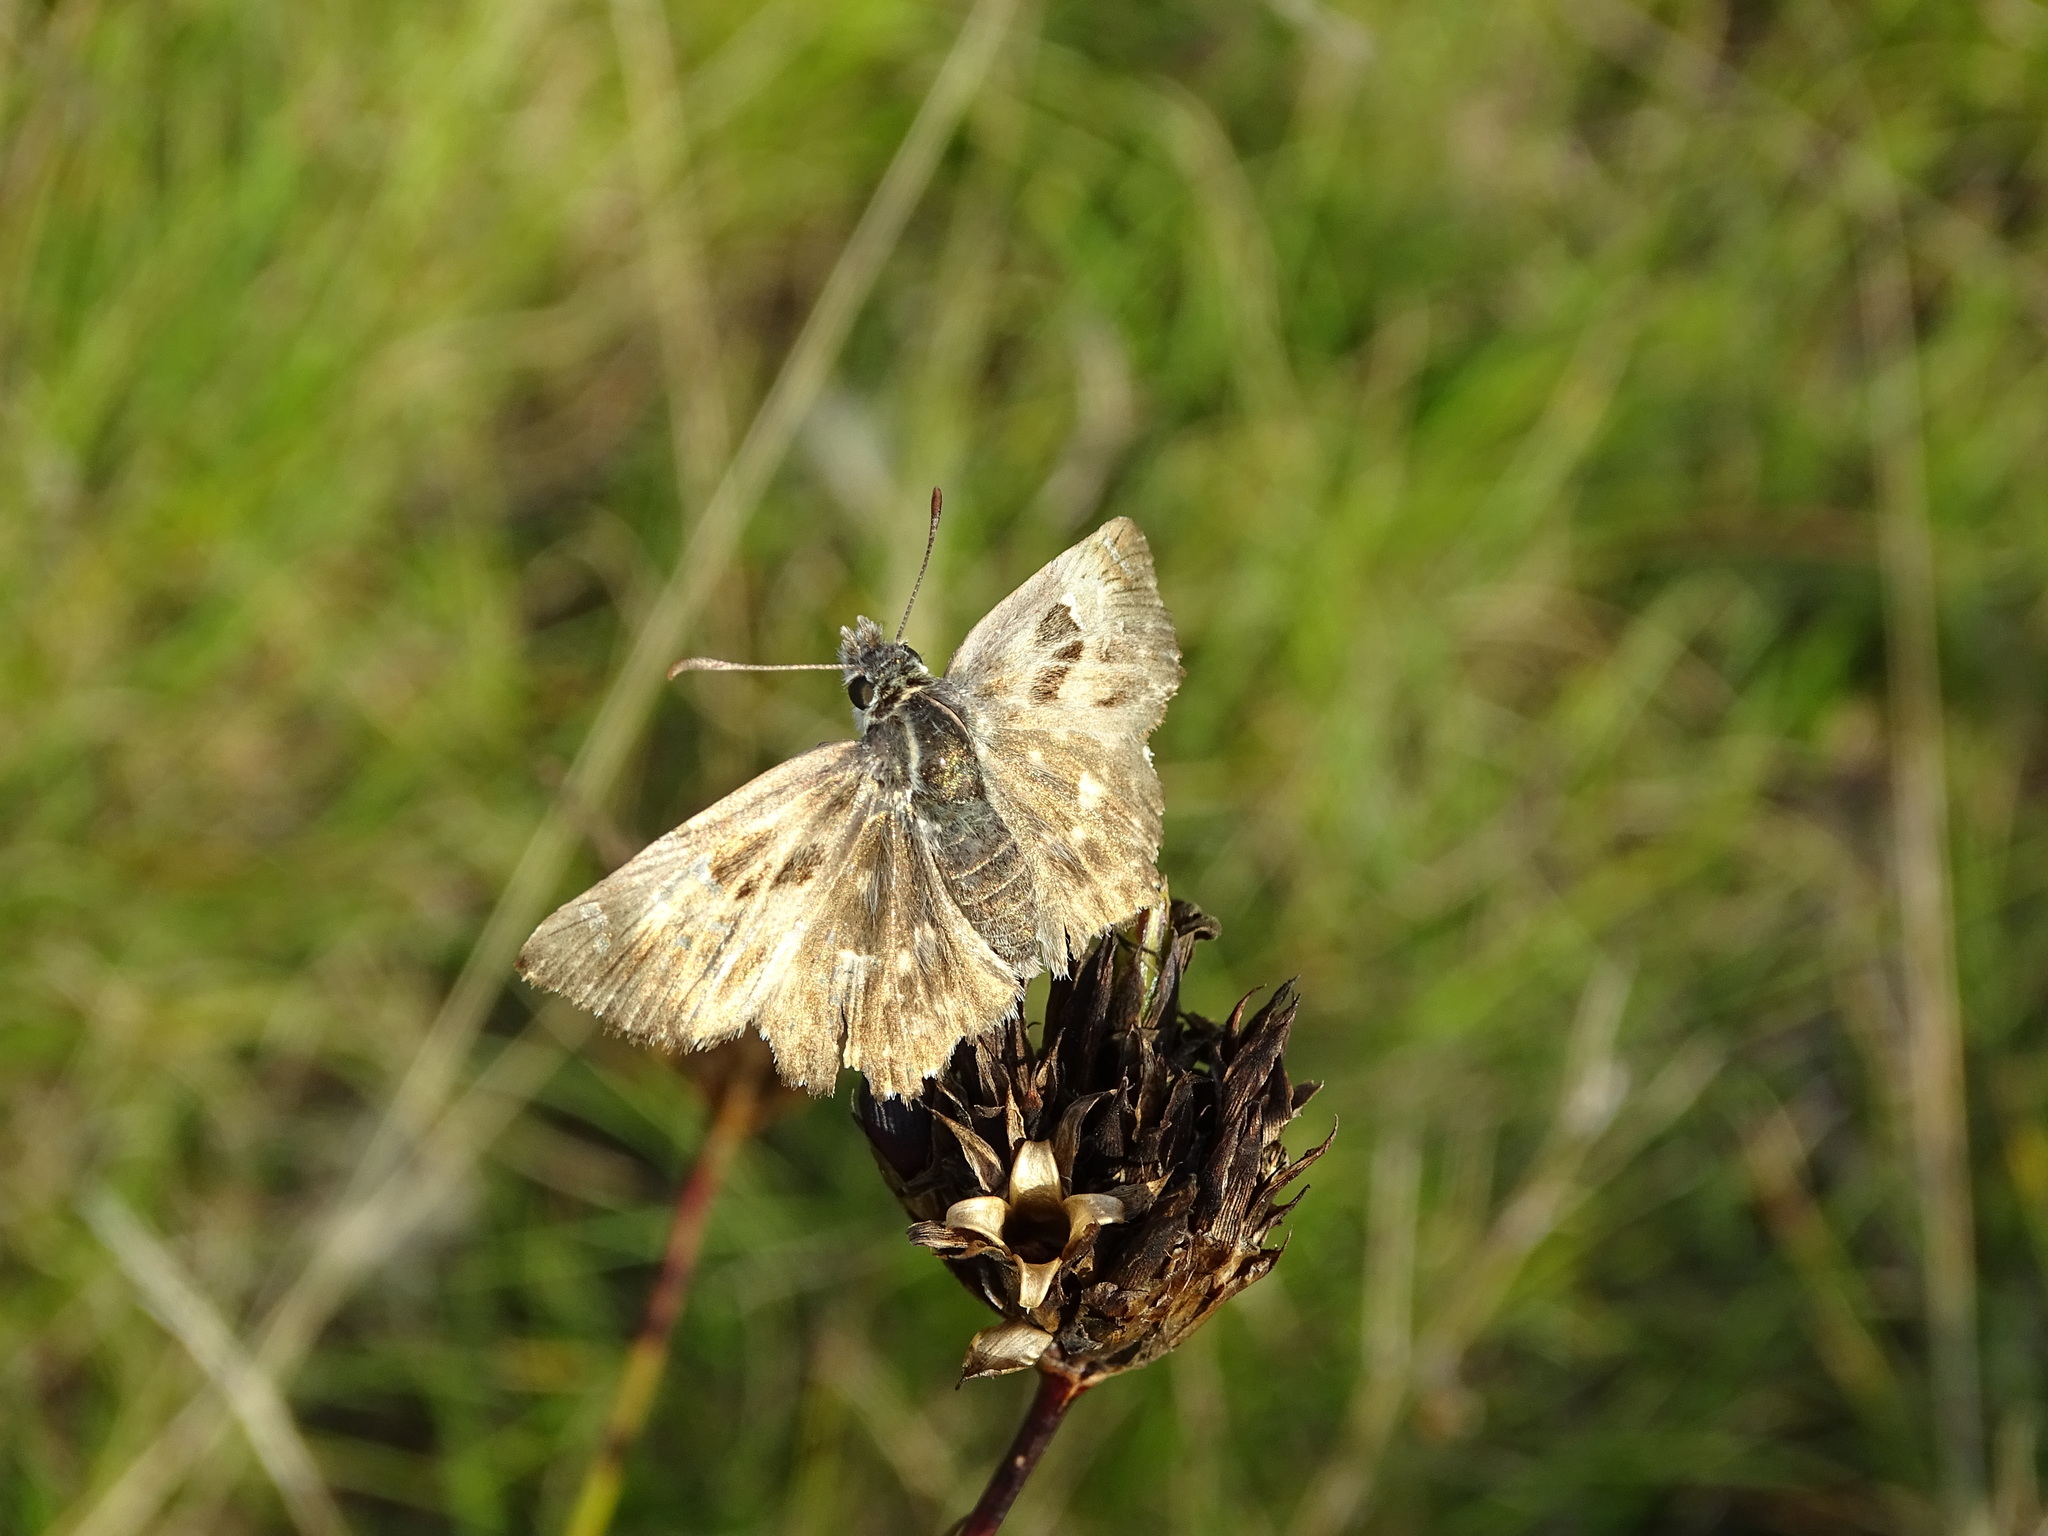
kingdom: Animalia
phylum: Arthropoda
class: Insecta
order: Lepidoptera
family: Hesperiidae
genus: Carcharodus
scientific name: Carcharodus alceae
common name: Mallow skipper
